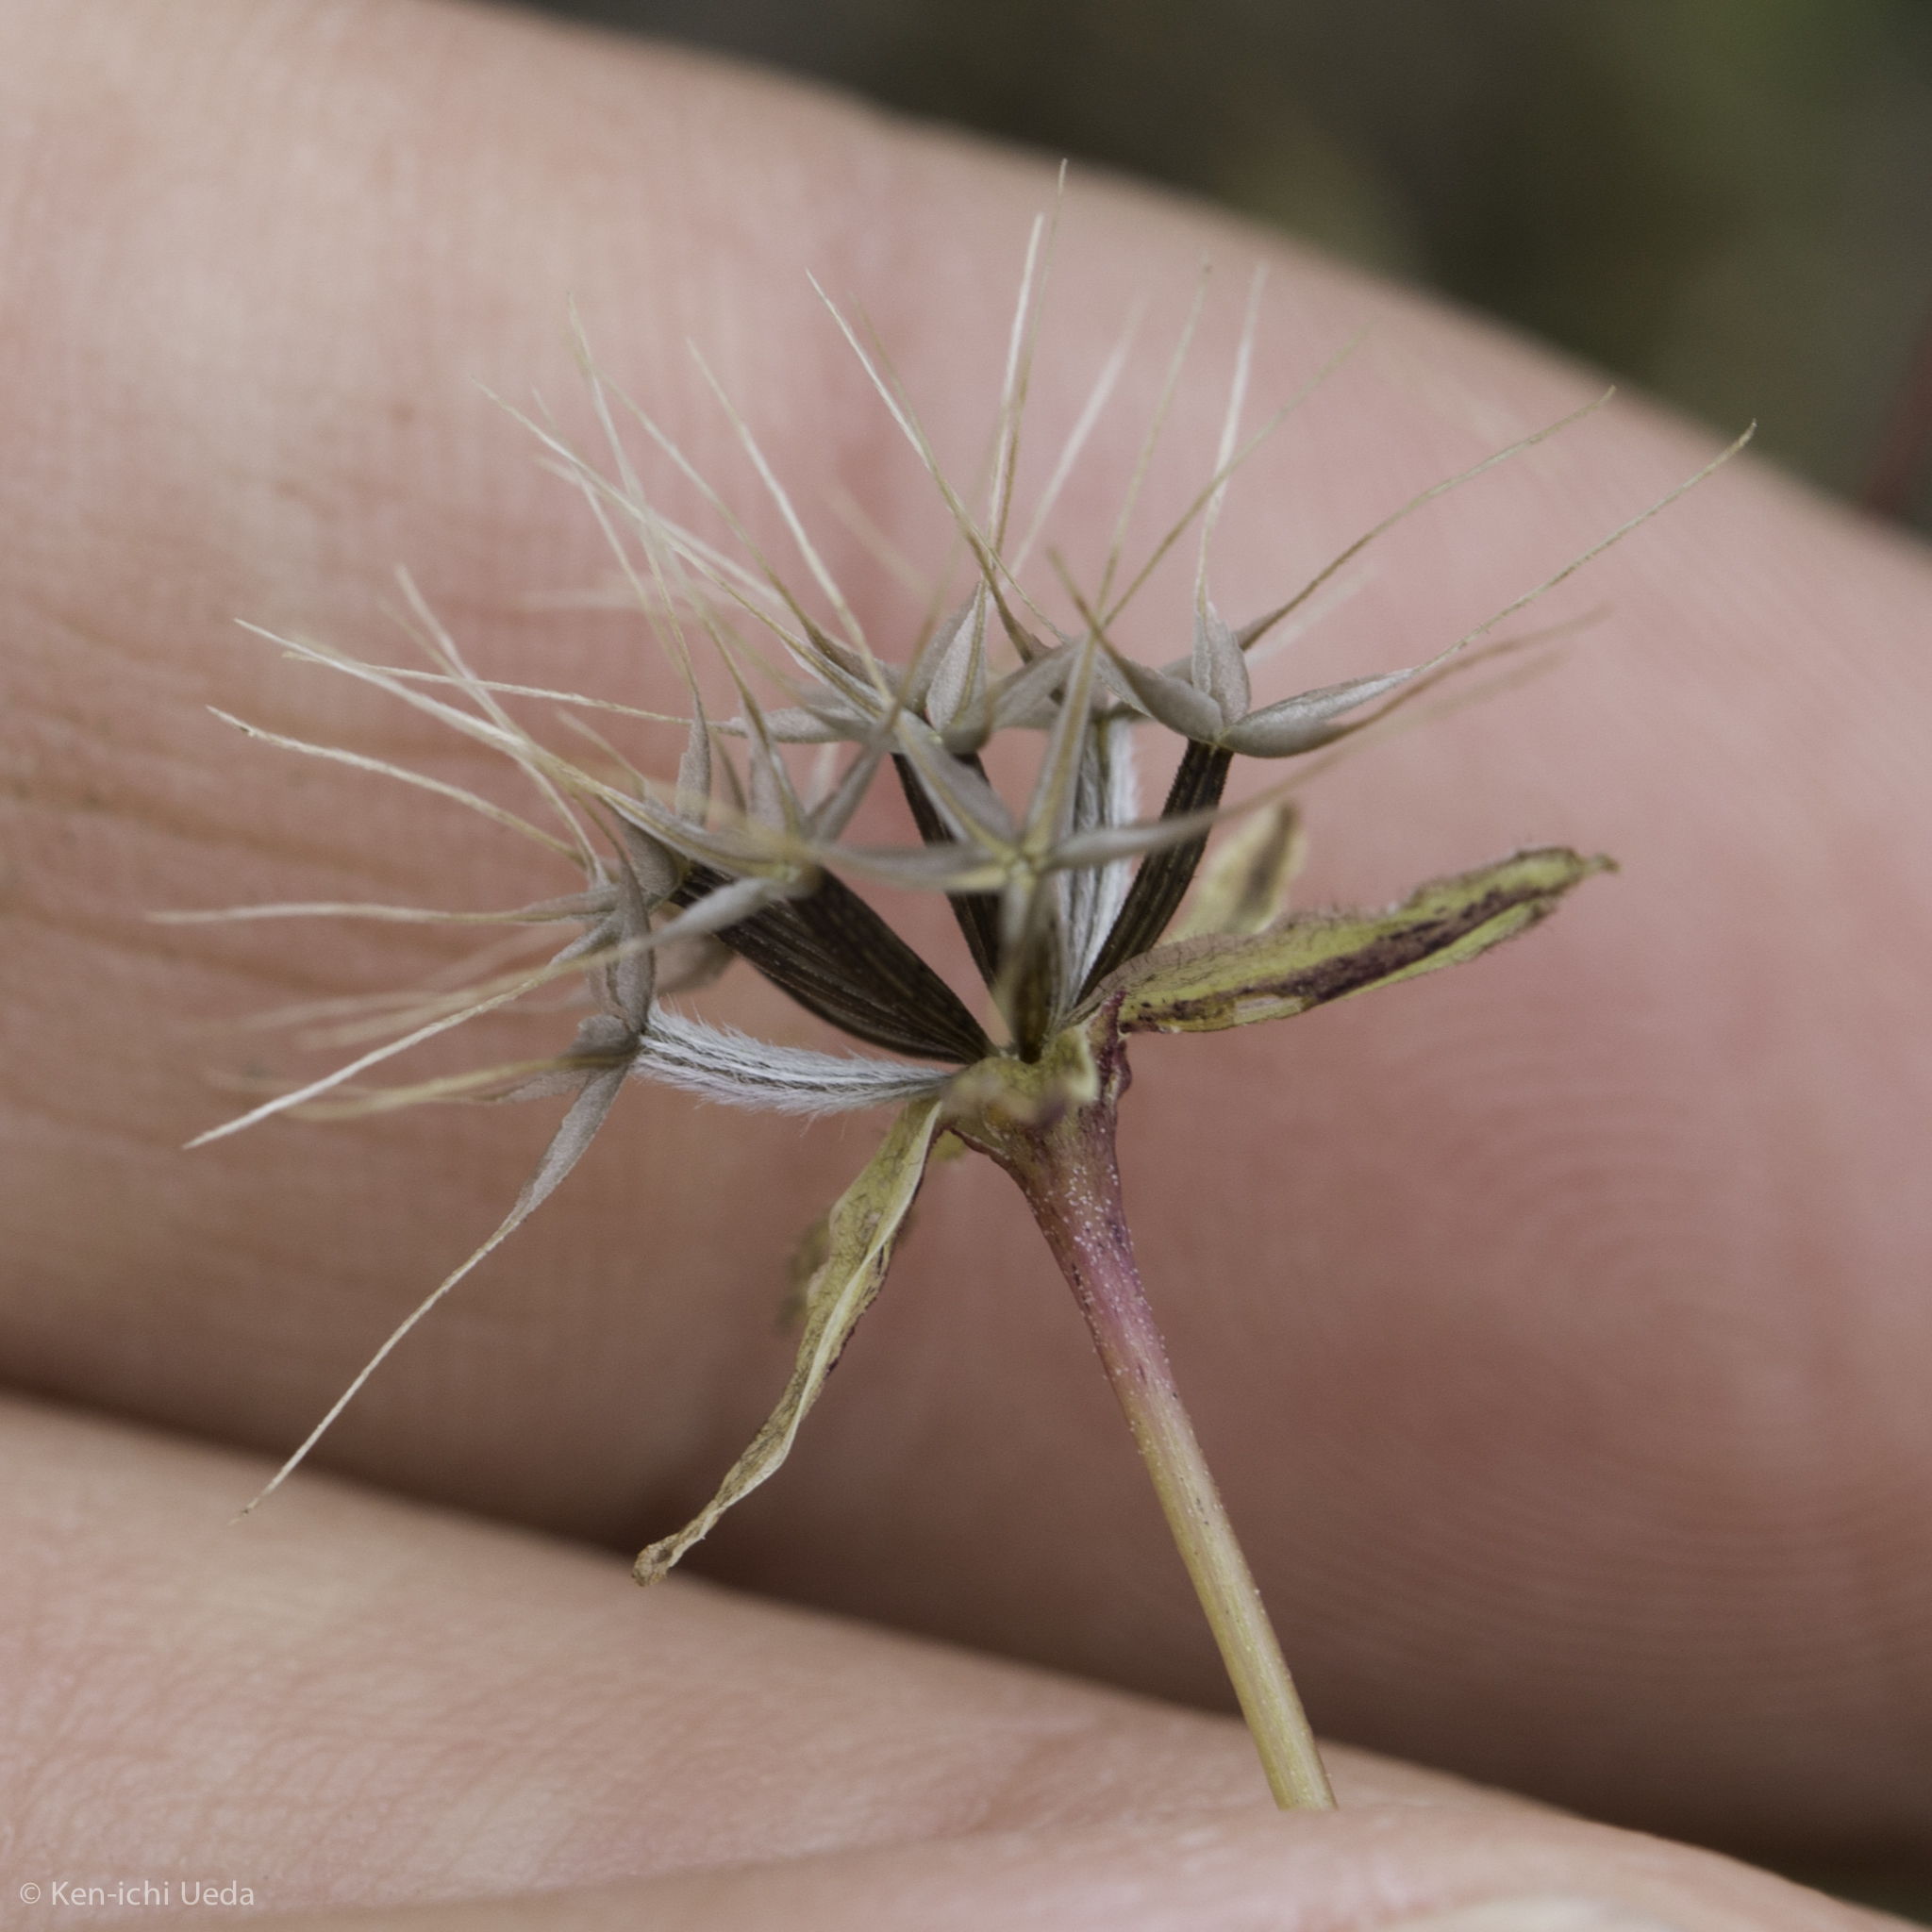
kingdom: Plantae
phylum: Tracheophyta
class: Magnoliopsida
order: Asterales
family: Asteraceae
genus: Microseris
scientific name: Microseris douglasii
